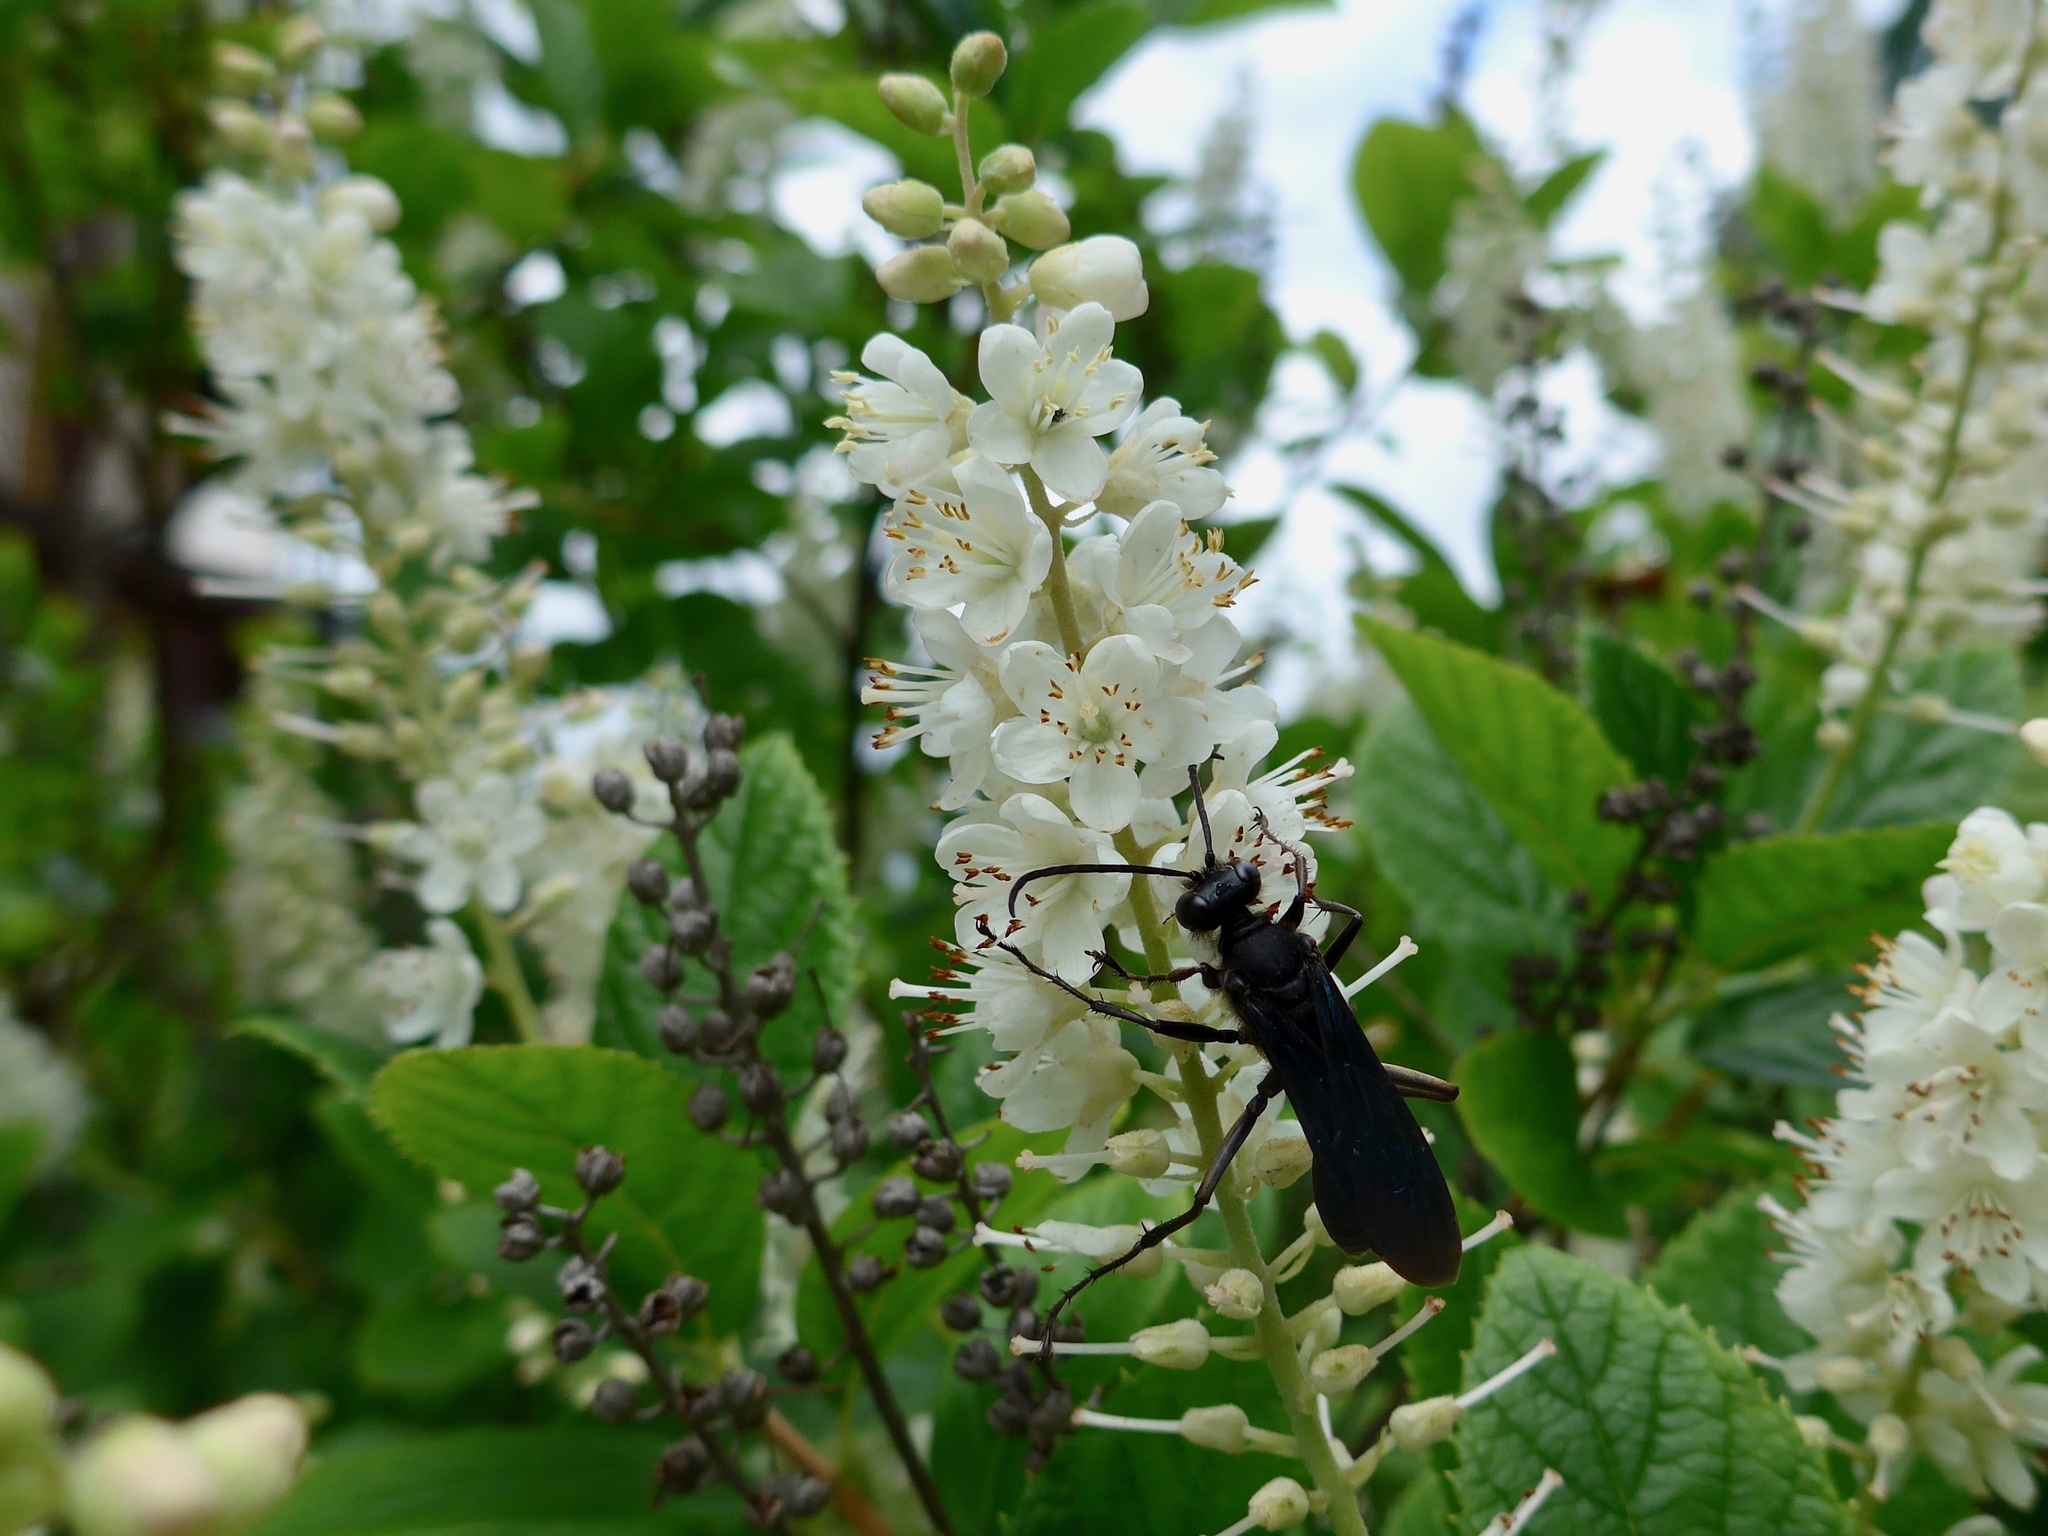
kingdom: Animalia
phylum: Arthropoda
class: Insecta
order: Hymenoptera
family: Sphecidae
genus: Sphex
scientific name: Sphex pensylvanicus
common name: Great black digger wasp
